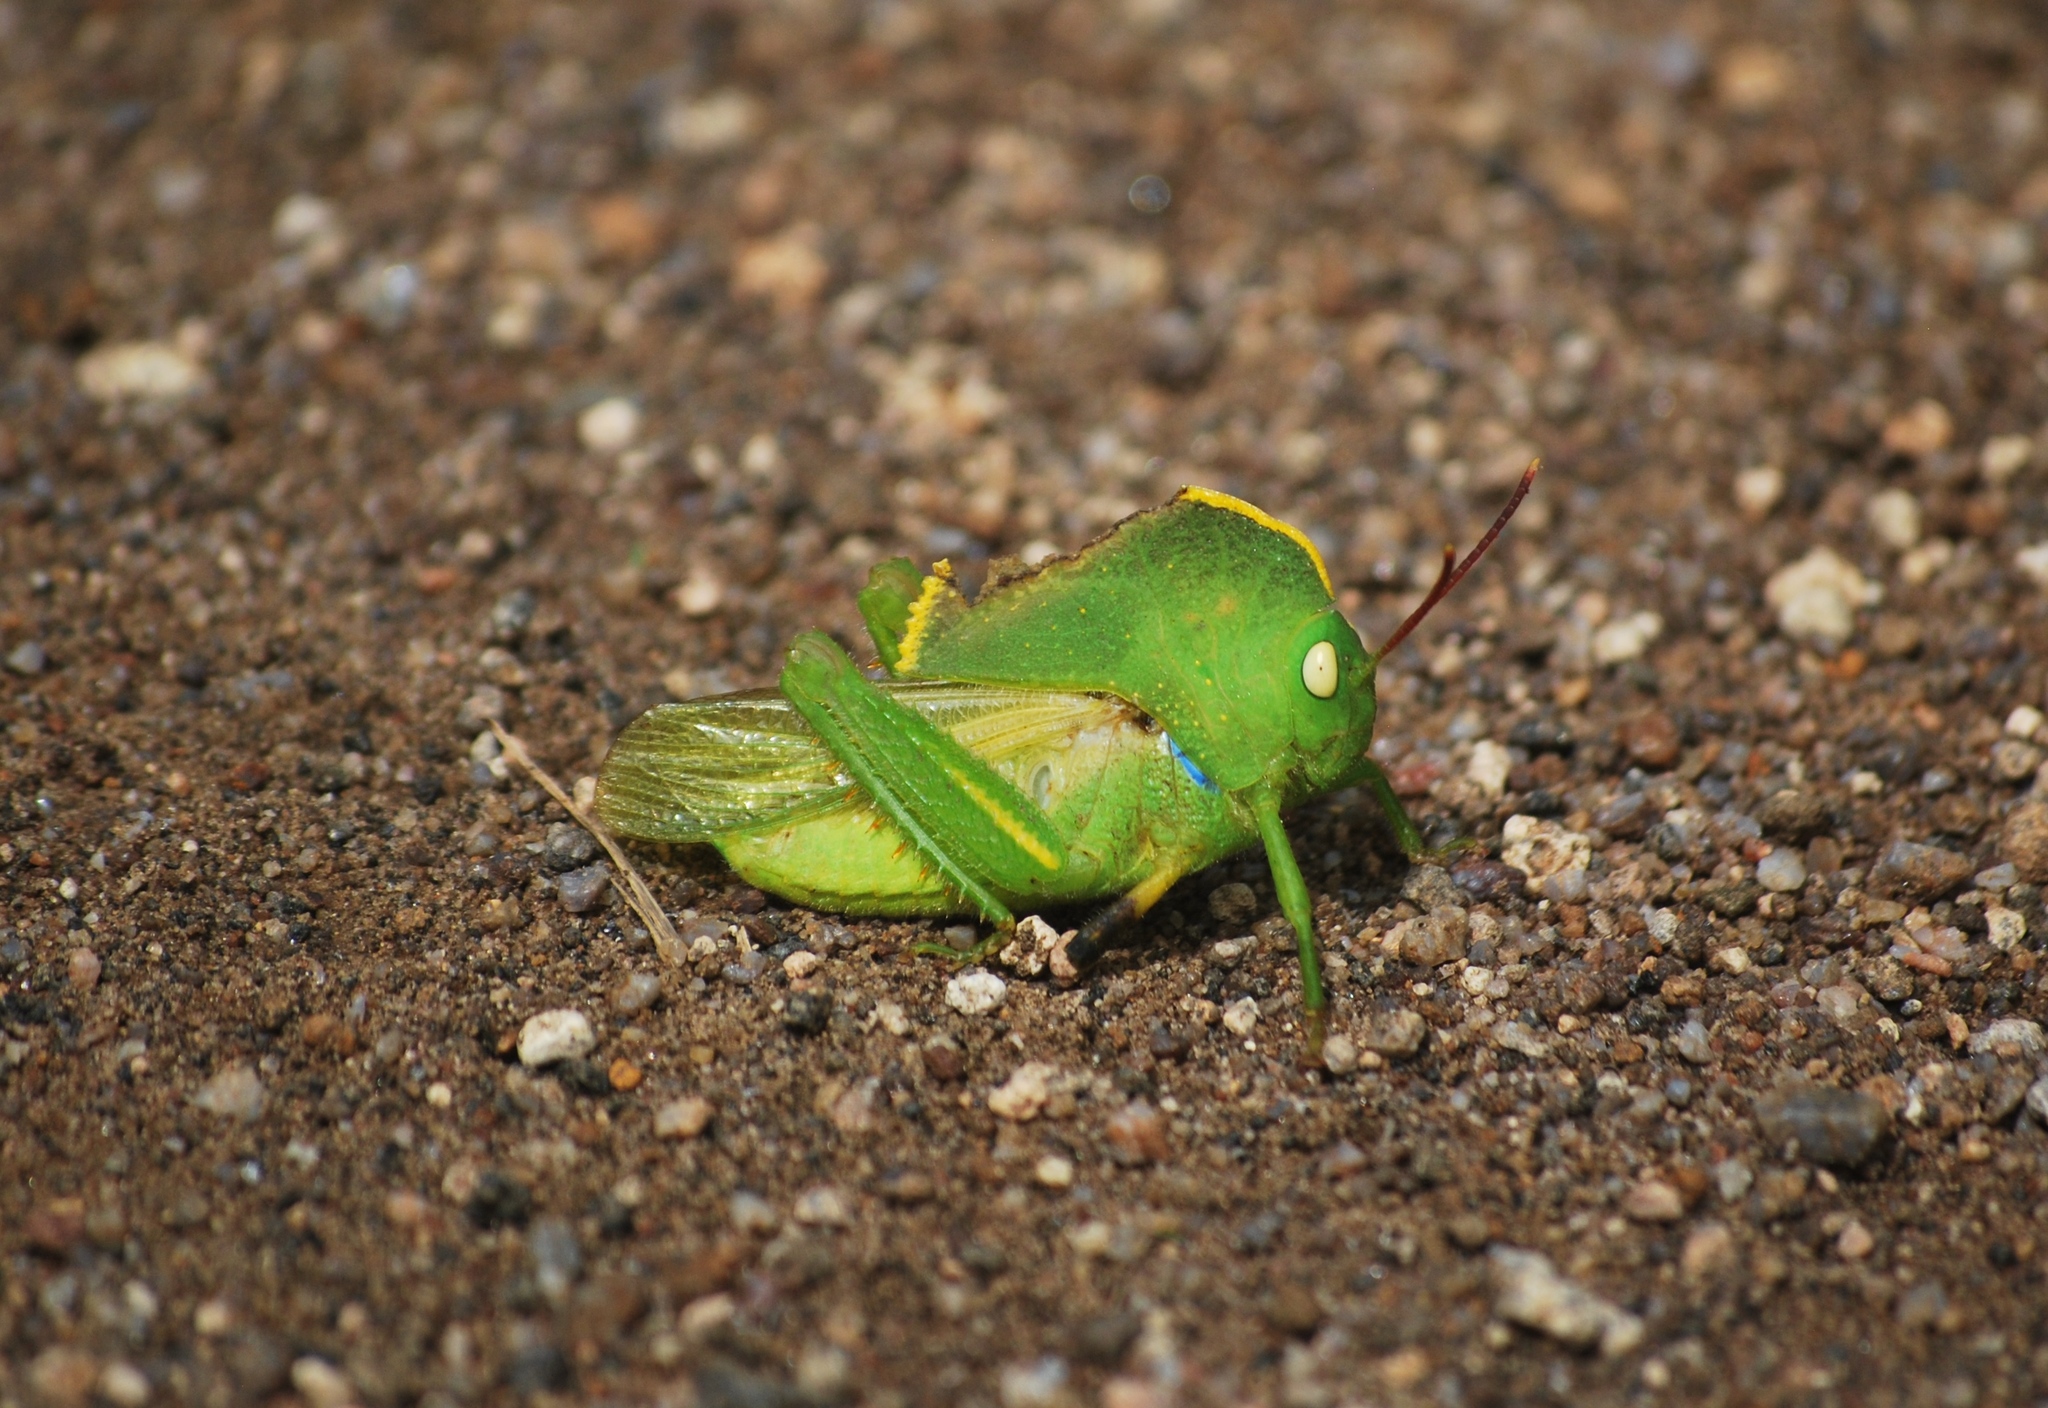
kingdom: Animalia
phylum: Arthropoda
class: Insecta
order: Orthoptera
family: Acrididae
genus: Teratodes
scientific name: Teratodes monticollis
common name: Hooded grasshopper
